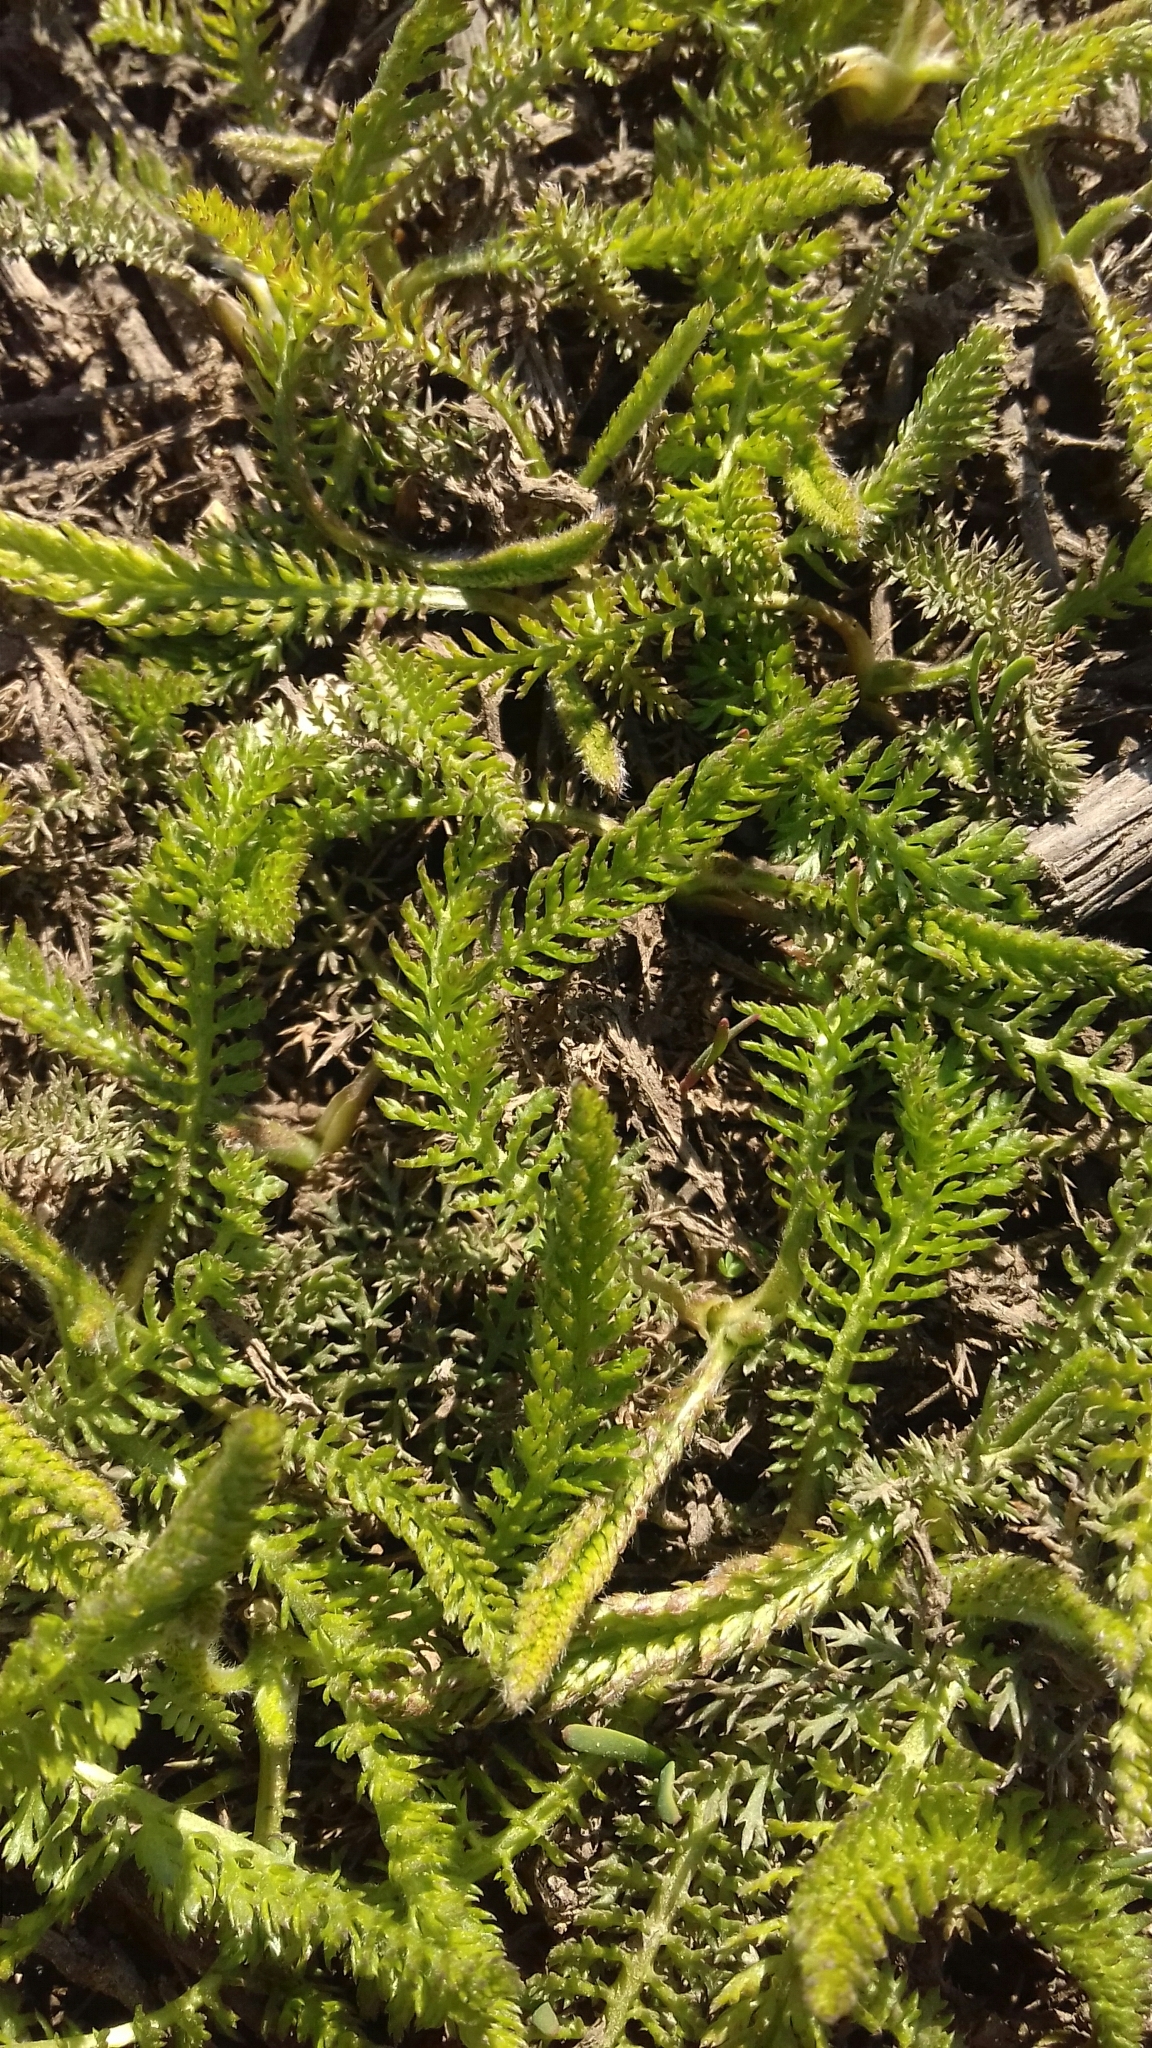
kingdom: Plantae
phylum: Tracheophyta
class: Magnoliopsida
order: Asterales
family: Asteraceae
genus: Achillea
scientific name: Achillea millefolium
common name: Yarrow
